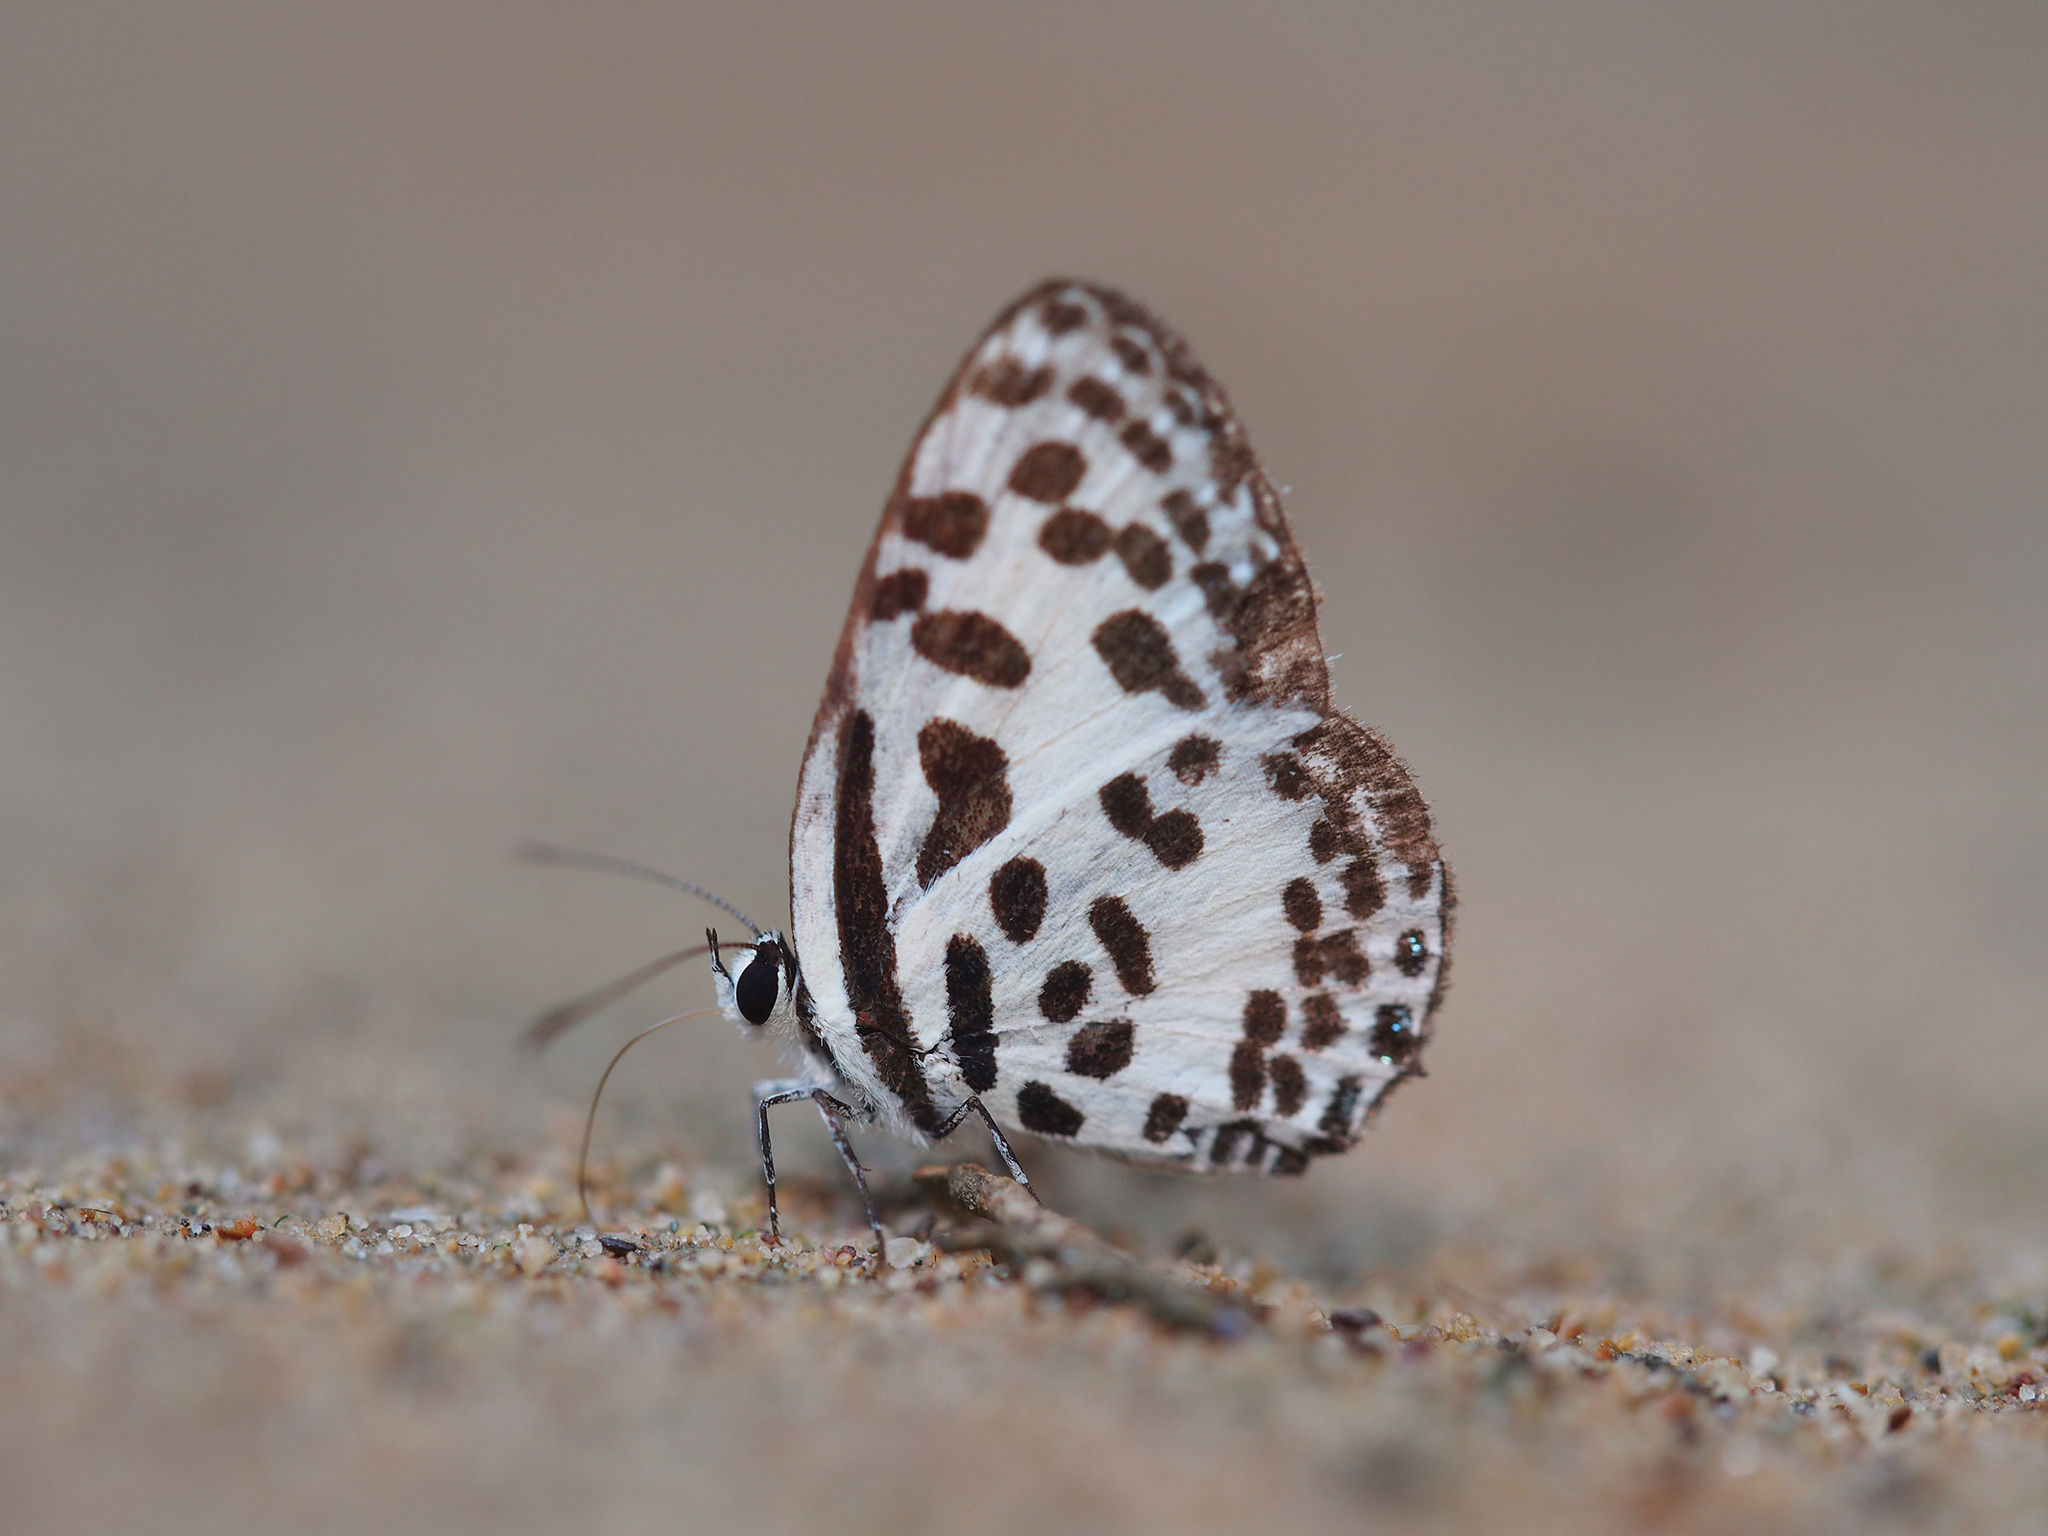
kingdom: Animalia
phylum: Arthropoda
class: Insecta
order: Lepidoptera
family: Lycaenidae
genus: Castalius
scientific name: Castalius rosimon
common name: Common pierrot
